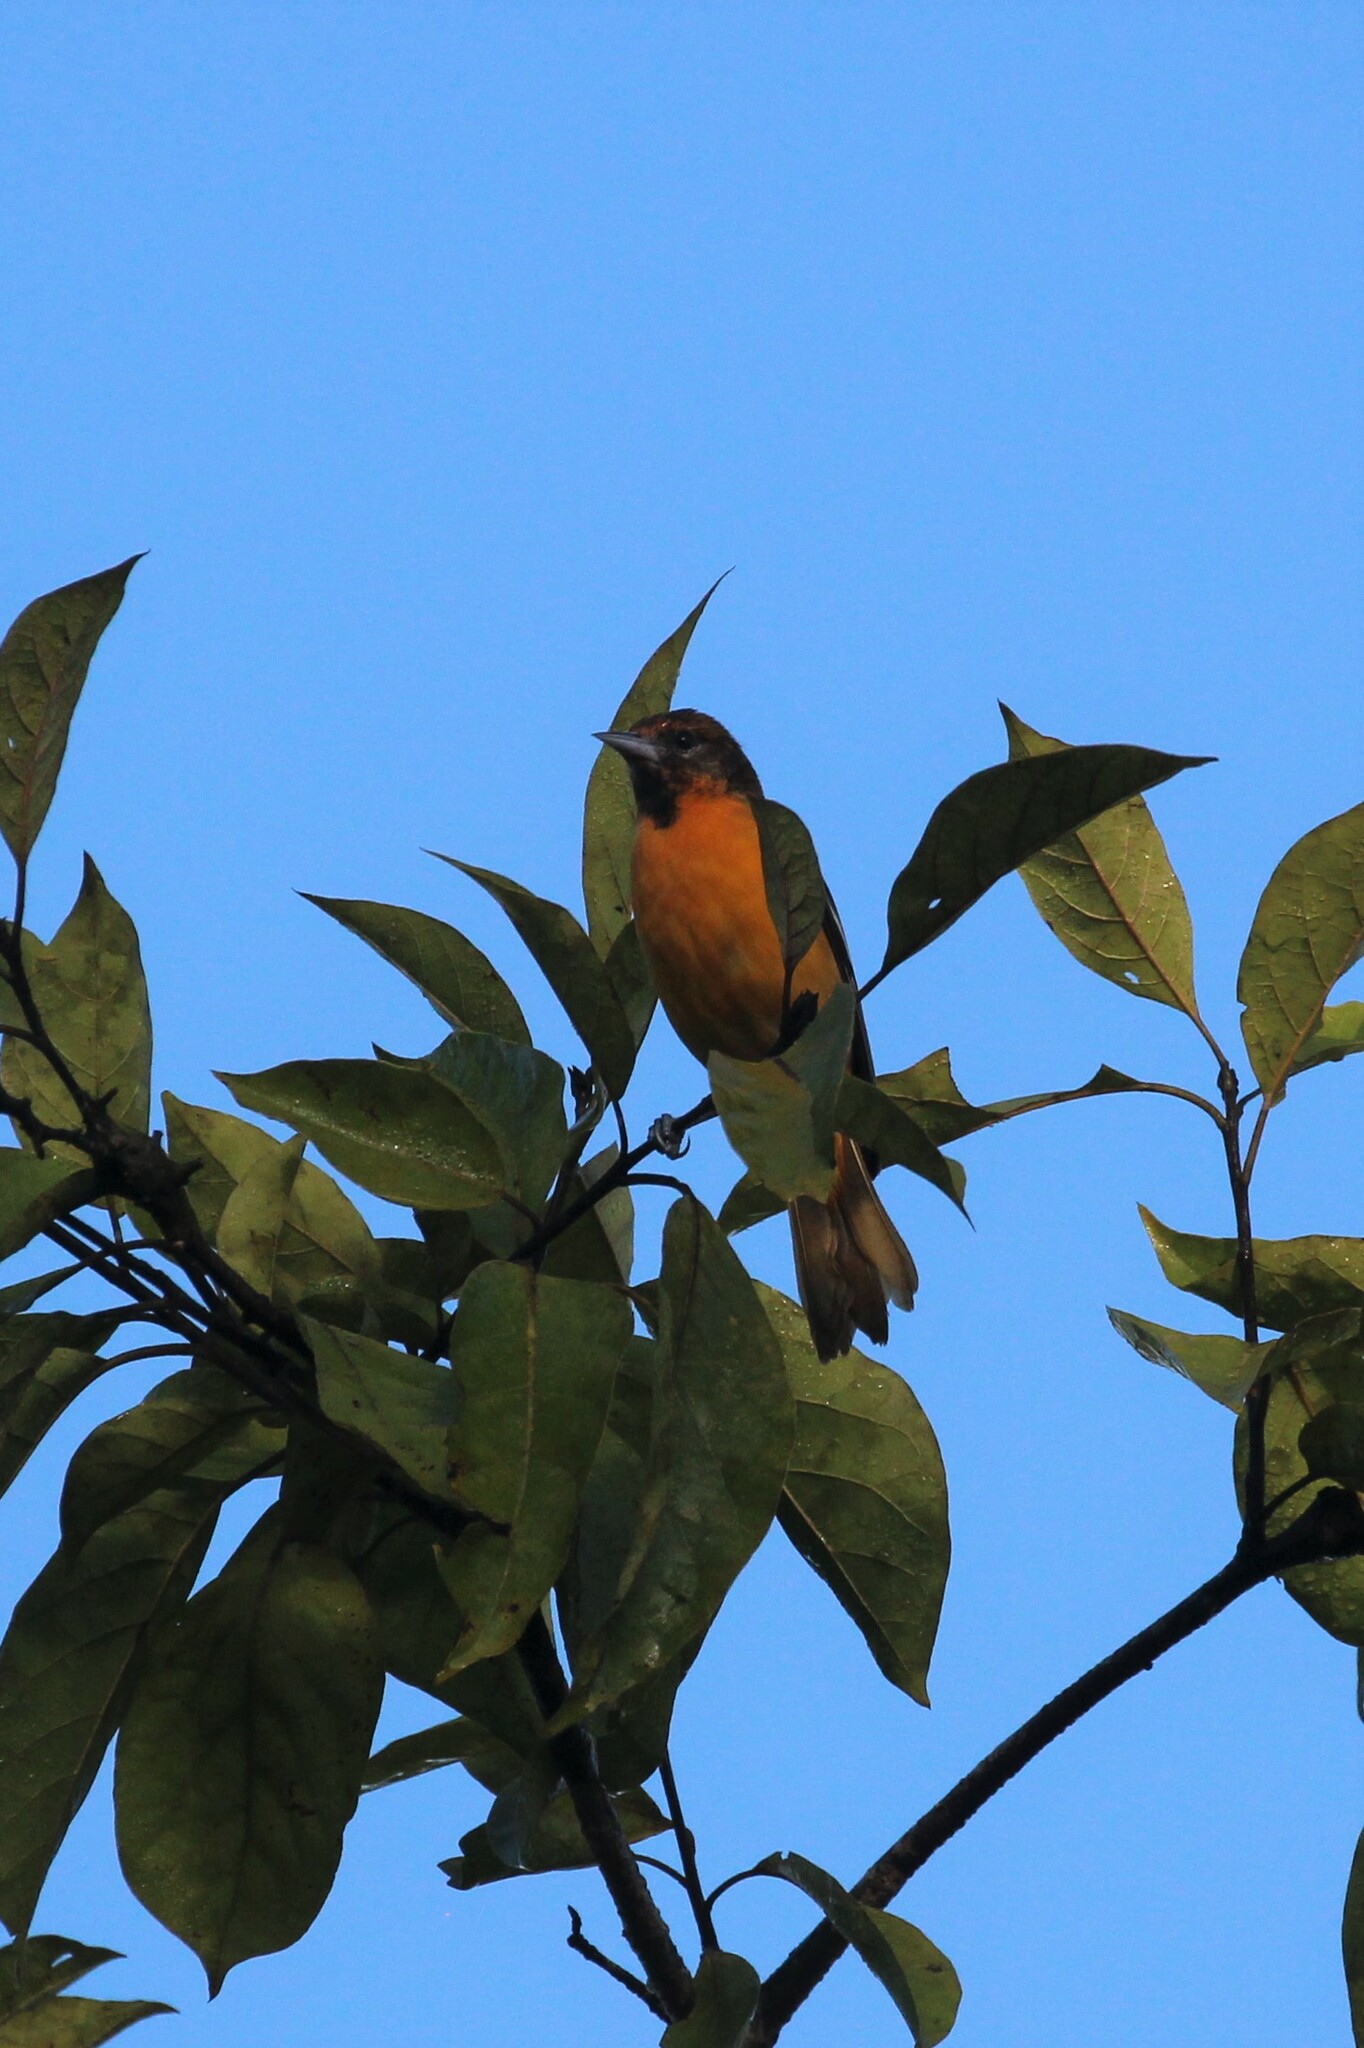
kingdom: Animalia
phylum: Chordata
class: Aves
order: Passeriformes
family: Icteridae
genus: Icterus
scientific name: Icterus galbula
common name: Baltimore oriole
